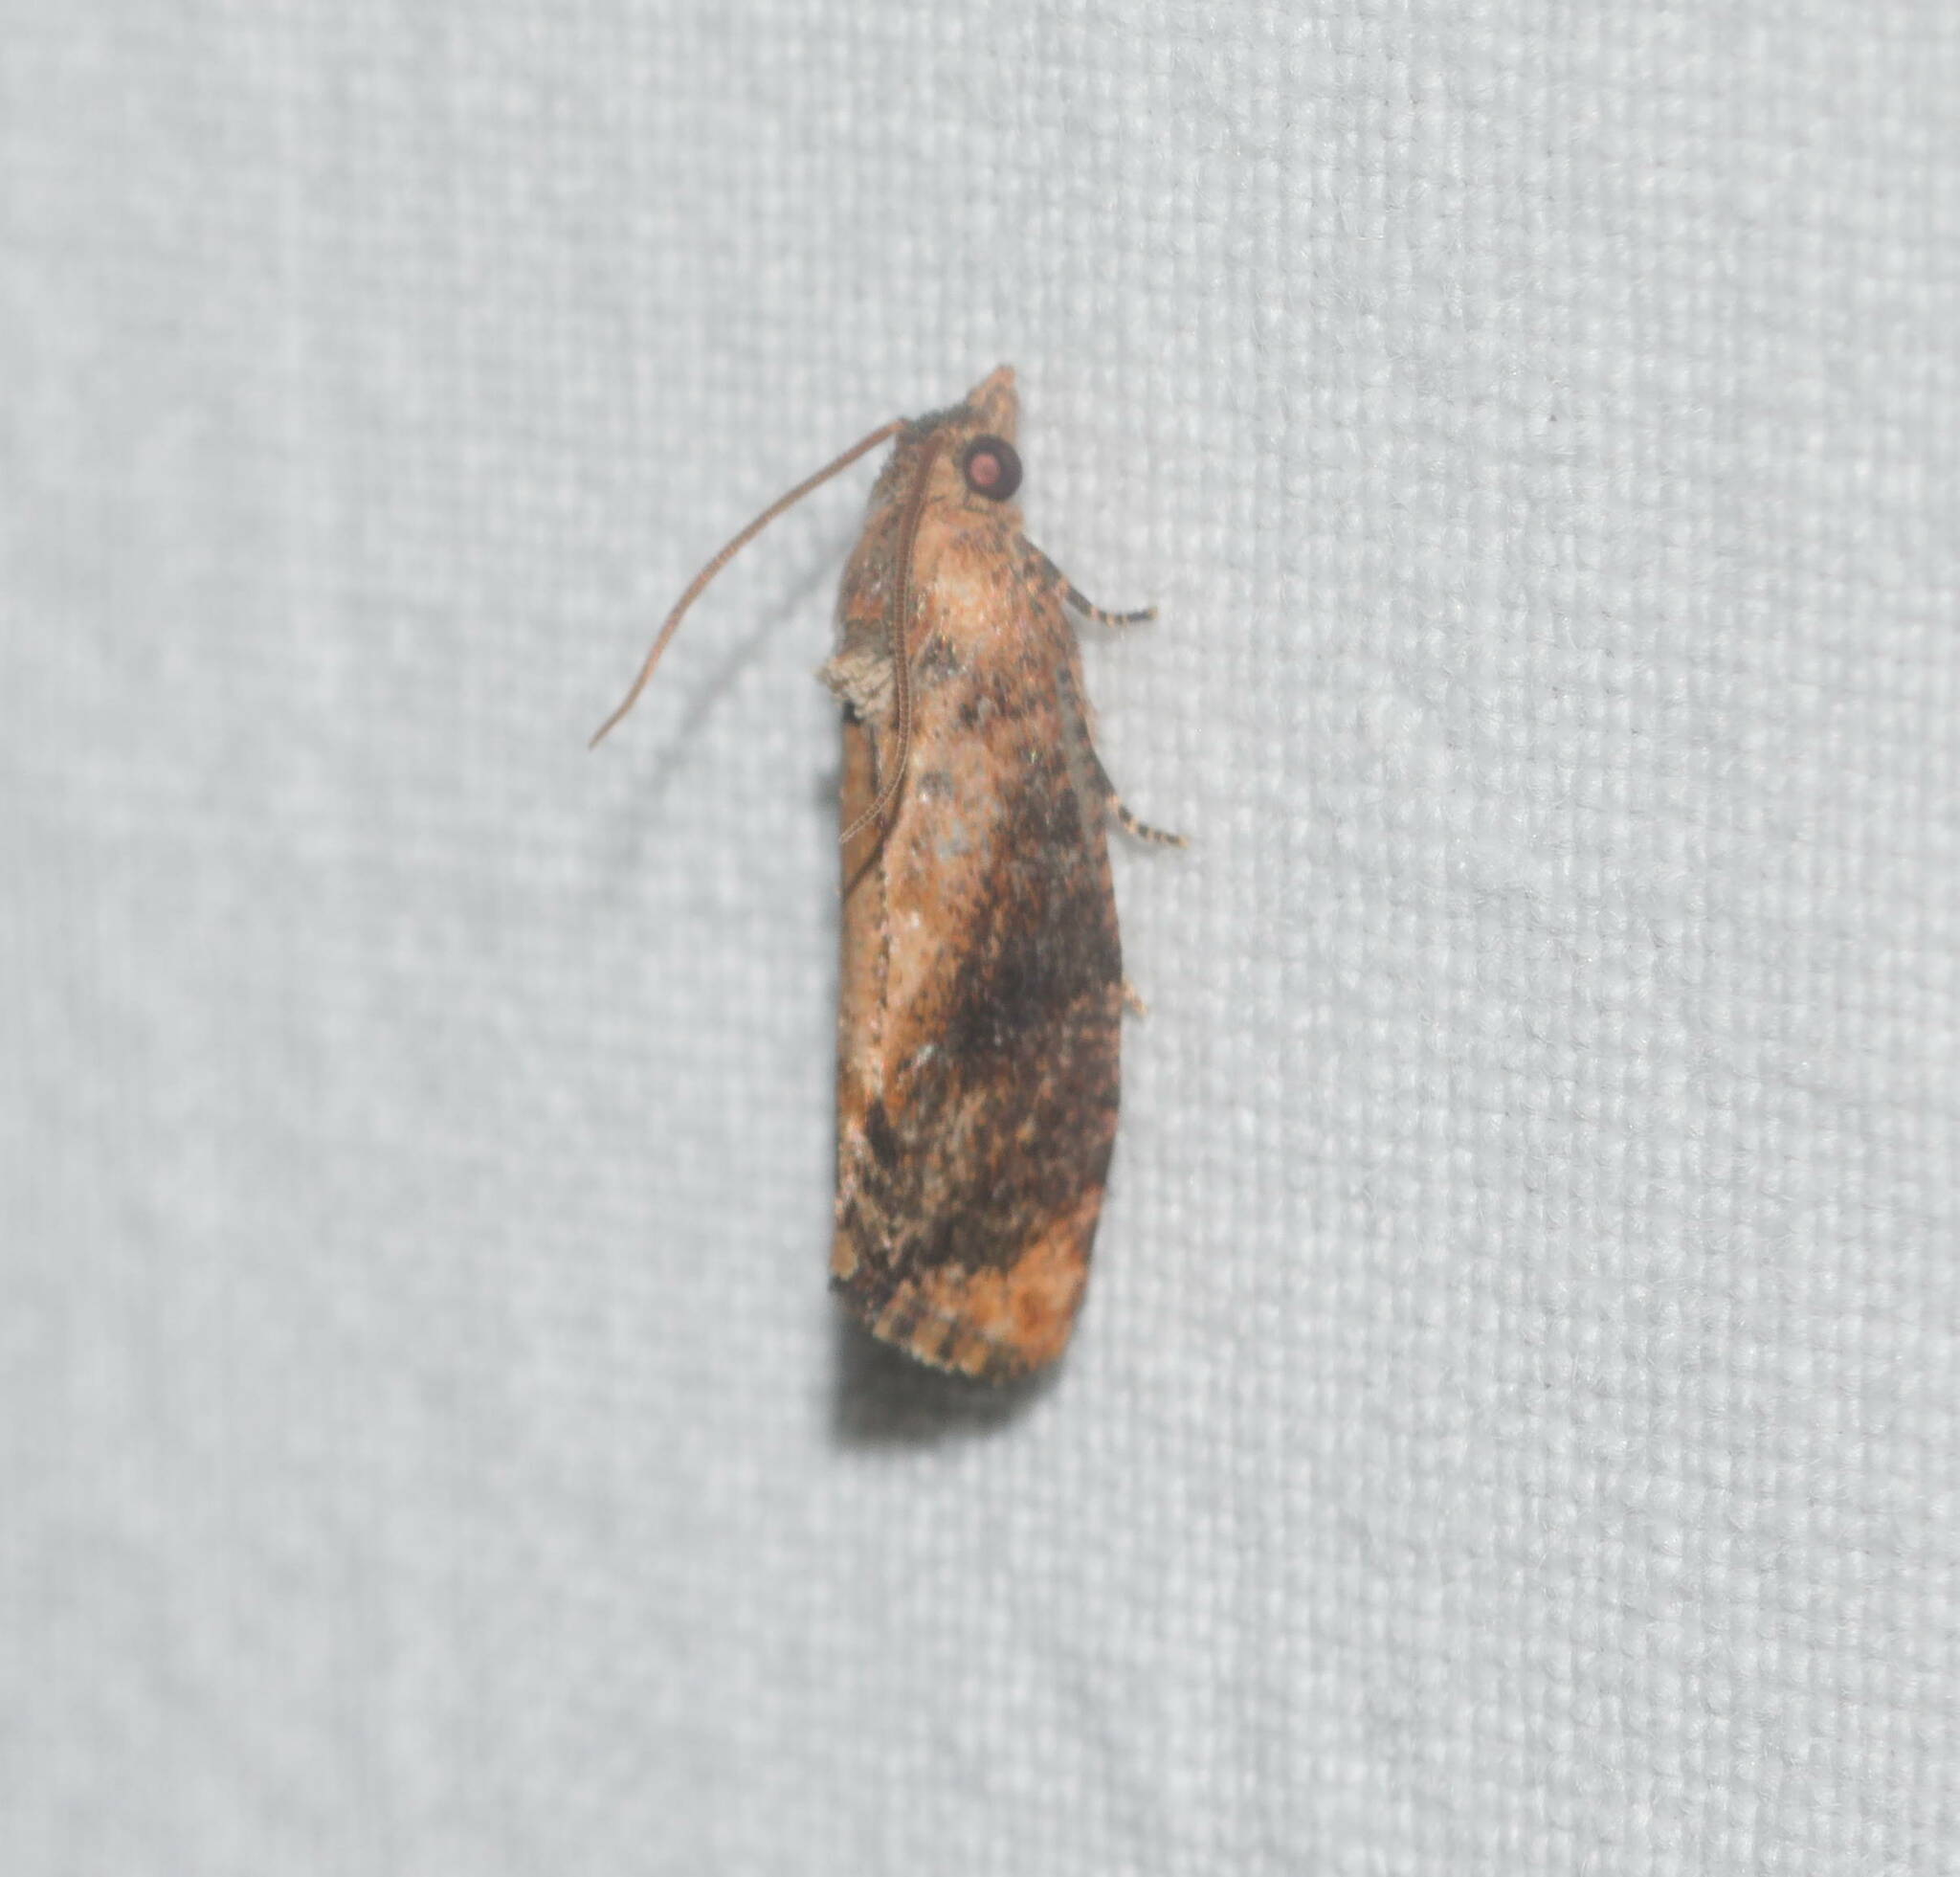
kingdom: Animalia
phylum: Arthropoda
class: Insecta
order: Lepidoptera
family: Tortricidae
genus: Cryptophlebia
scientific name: Cryptophlebia illepida
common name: Moth
